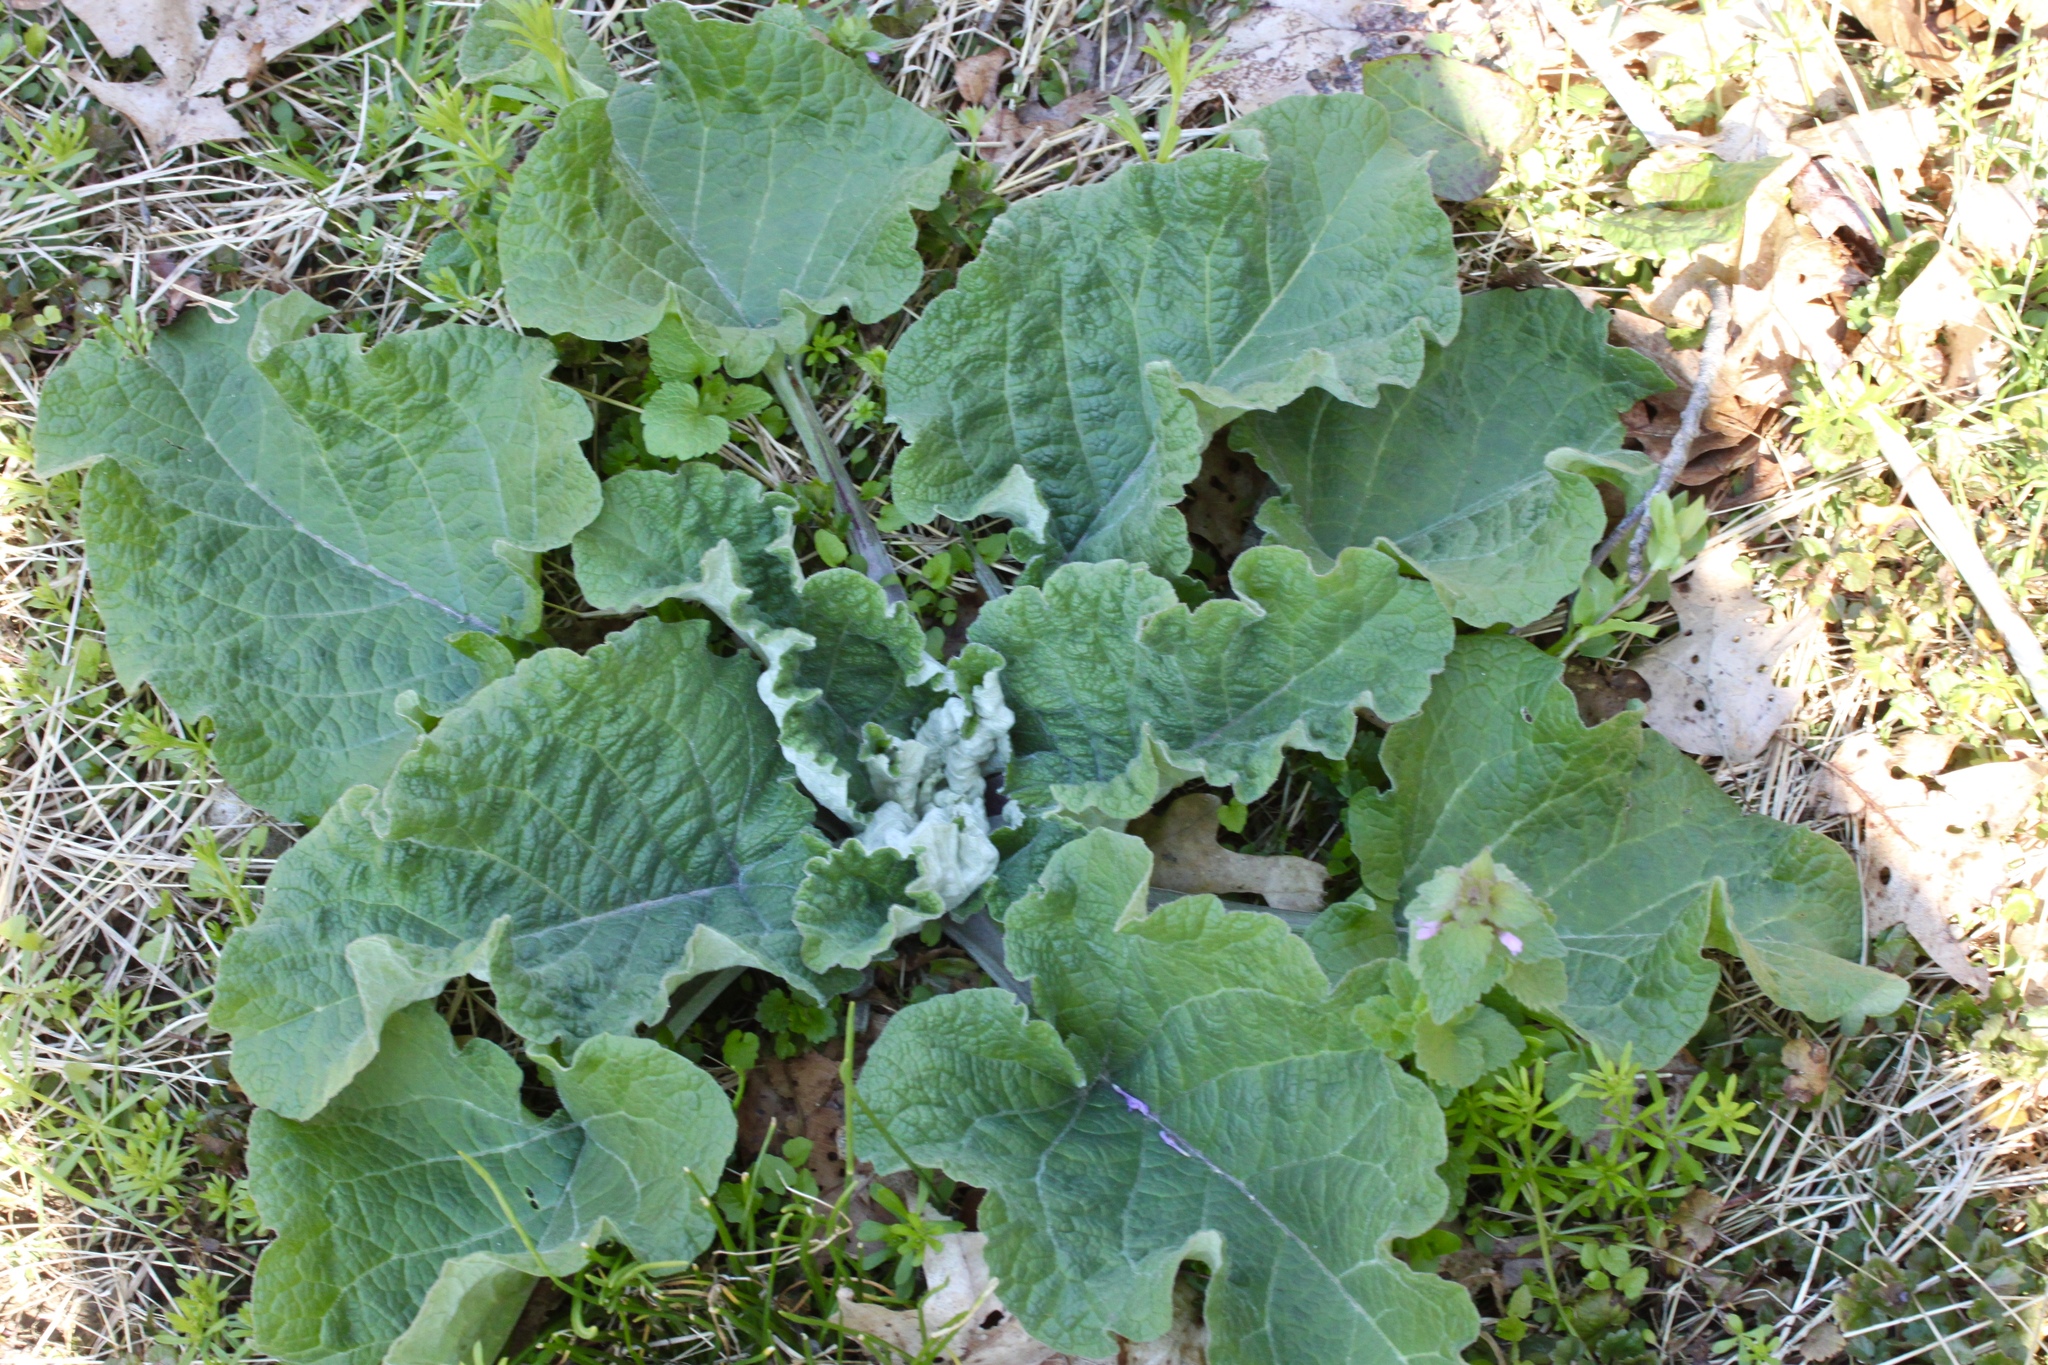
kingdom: Plantae
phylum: Tracheophyta
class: Magnoliopsida
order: Asterales
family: Asteraceae
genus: Arctium
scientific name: Arctium lappa
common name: Greater burdock
